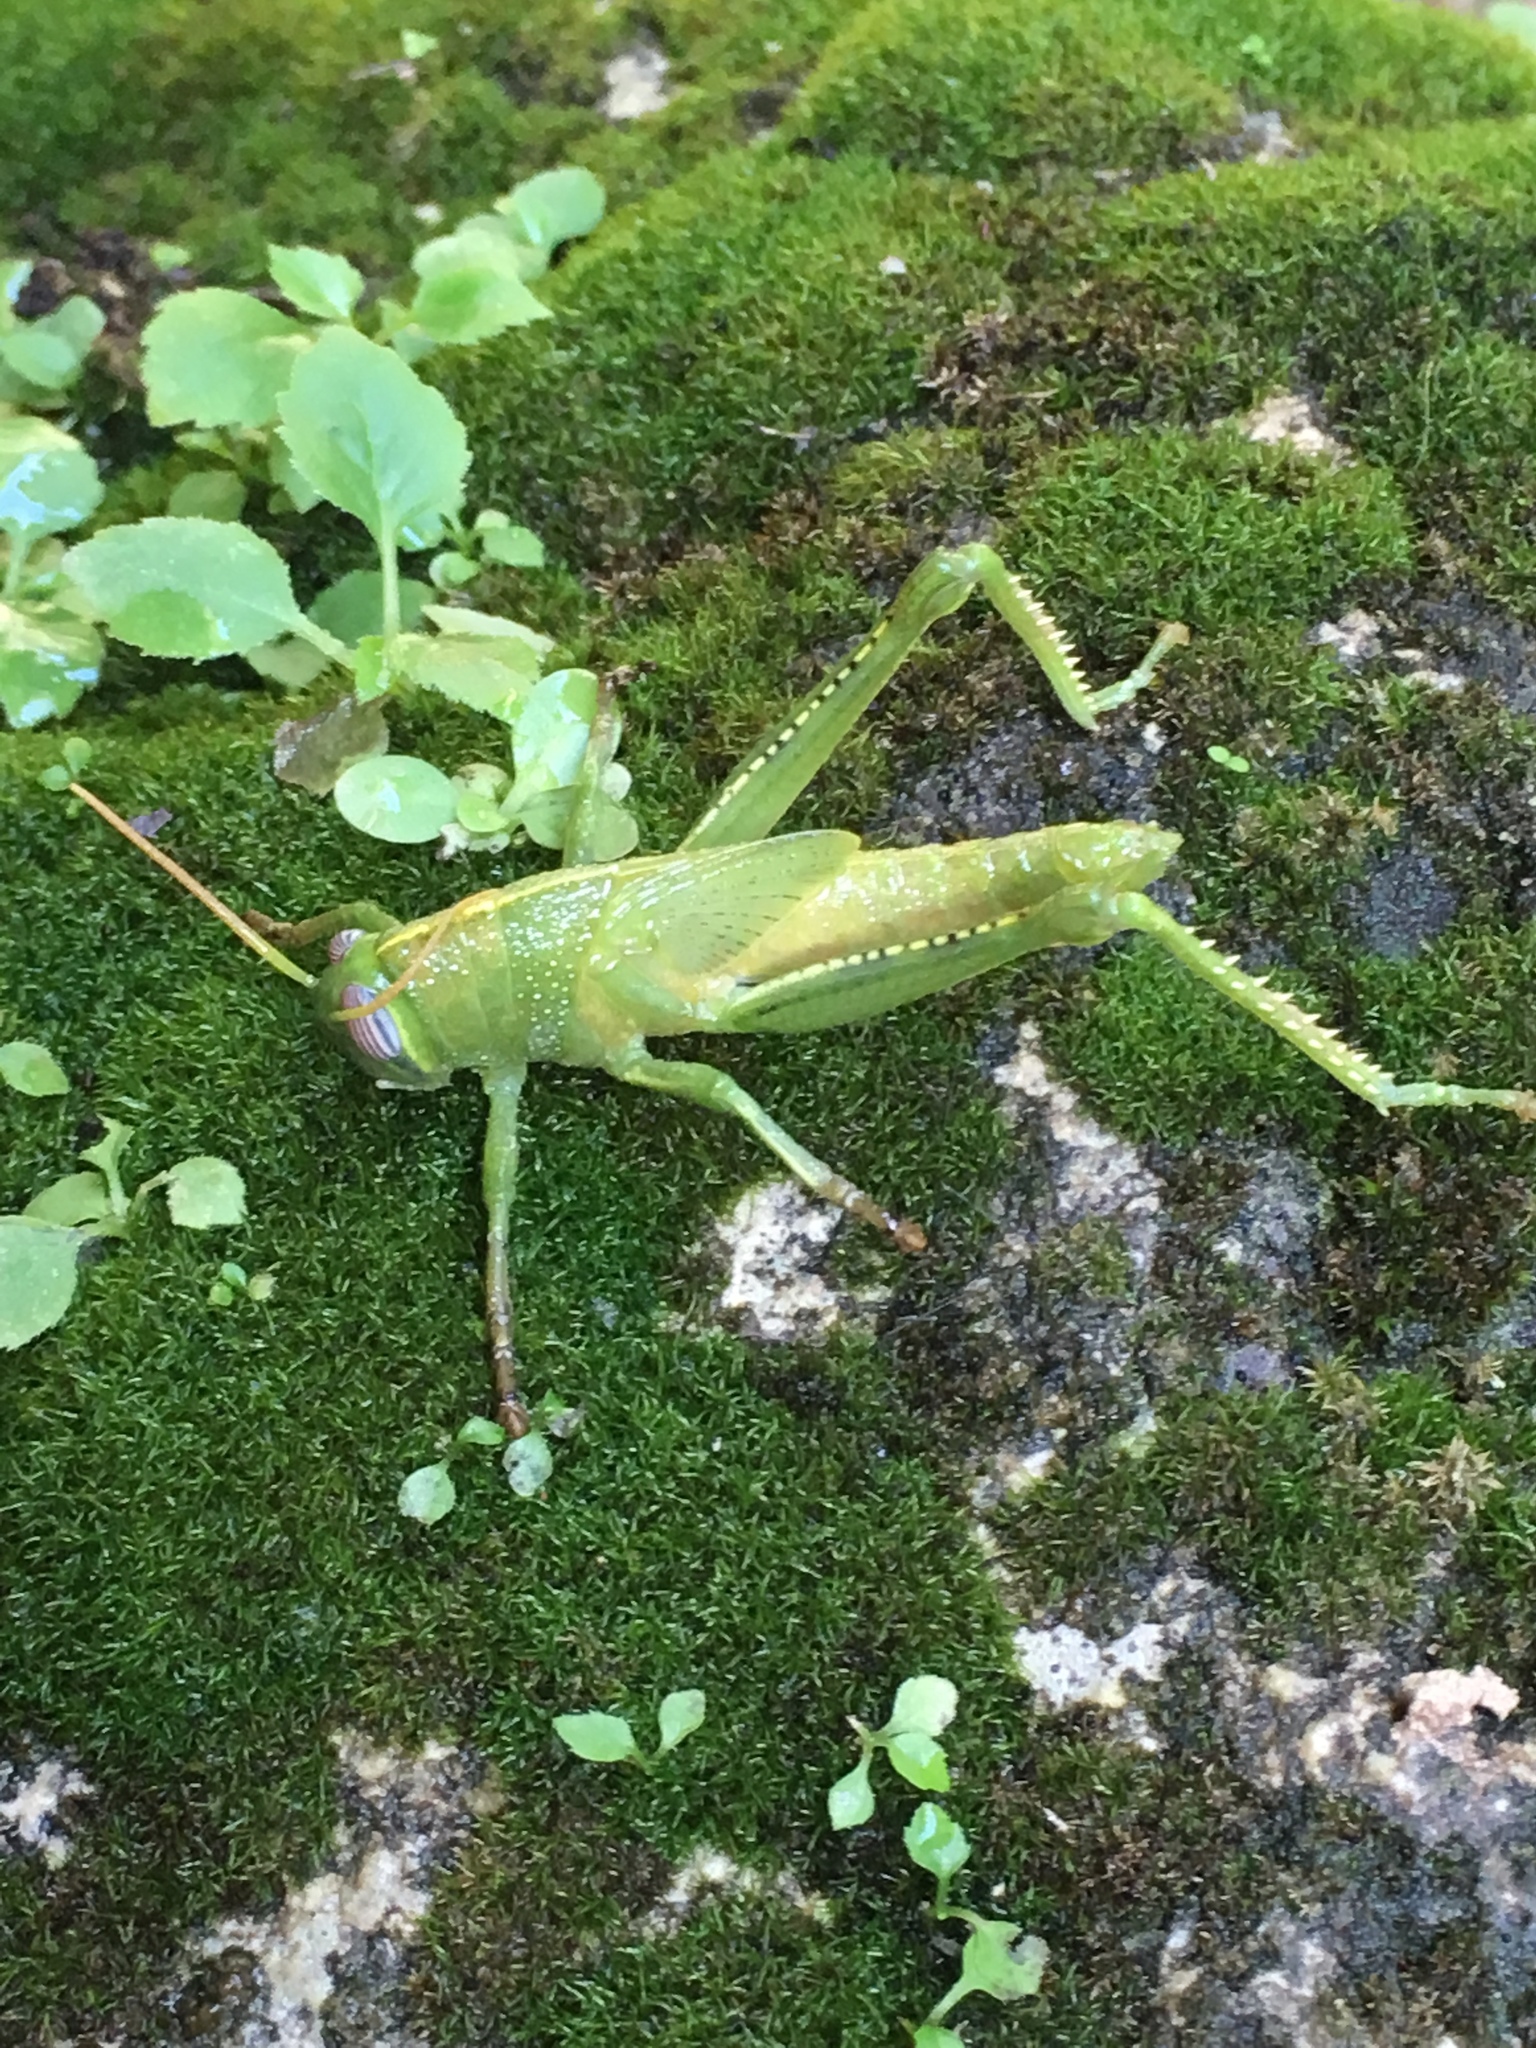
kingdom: Animalia
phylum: Arthropoda
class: Insecta
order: Orthoptera
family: Acrididae
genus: Anacridium
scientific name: Anacridium aegyptium
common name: Egyptian grasshopper
